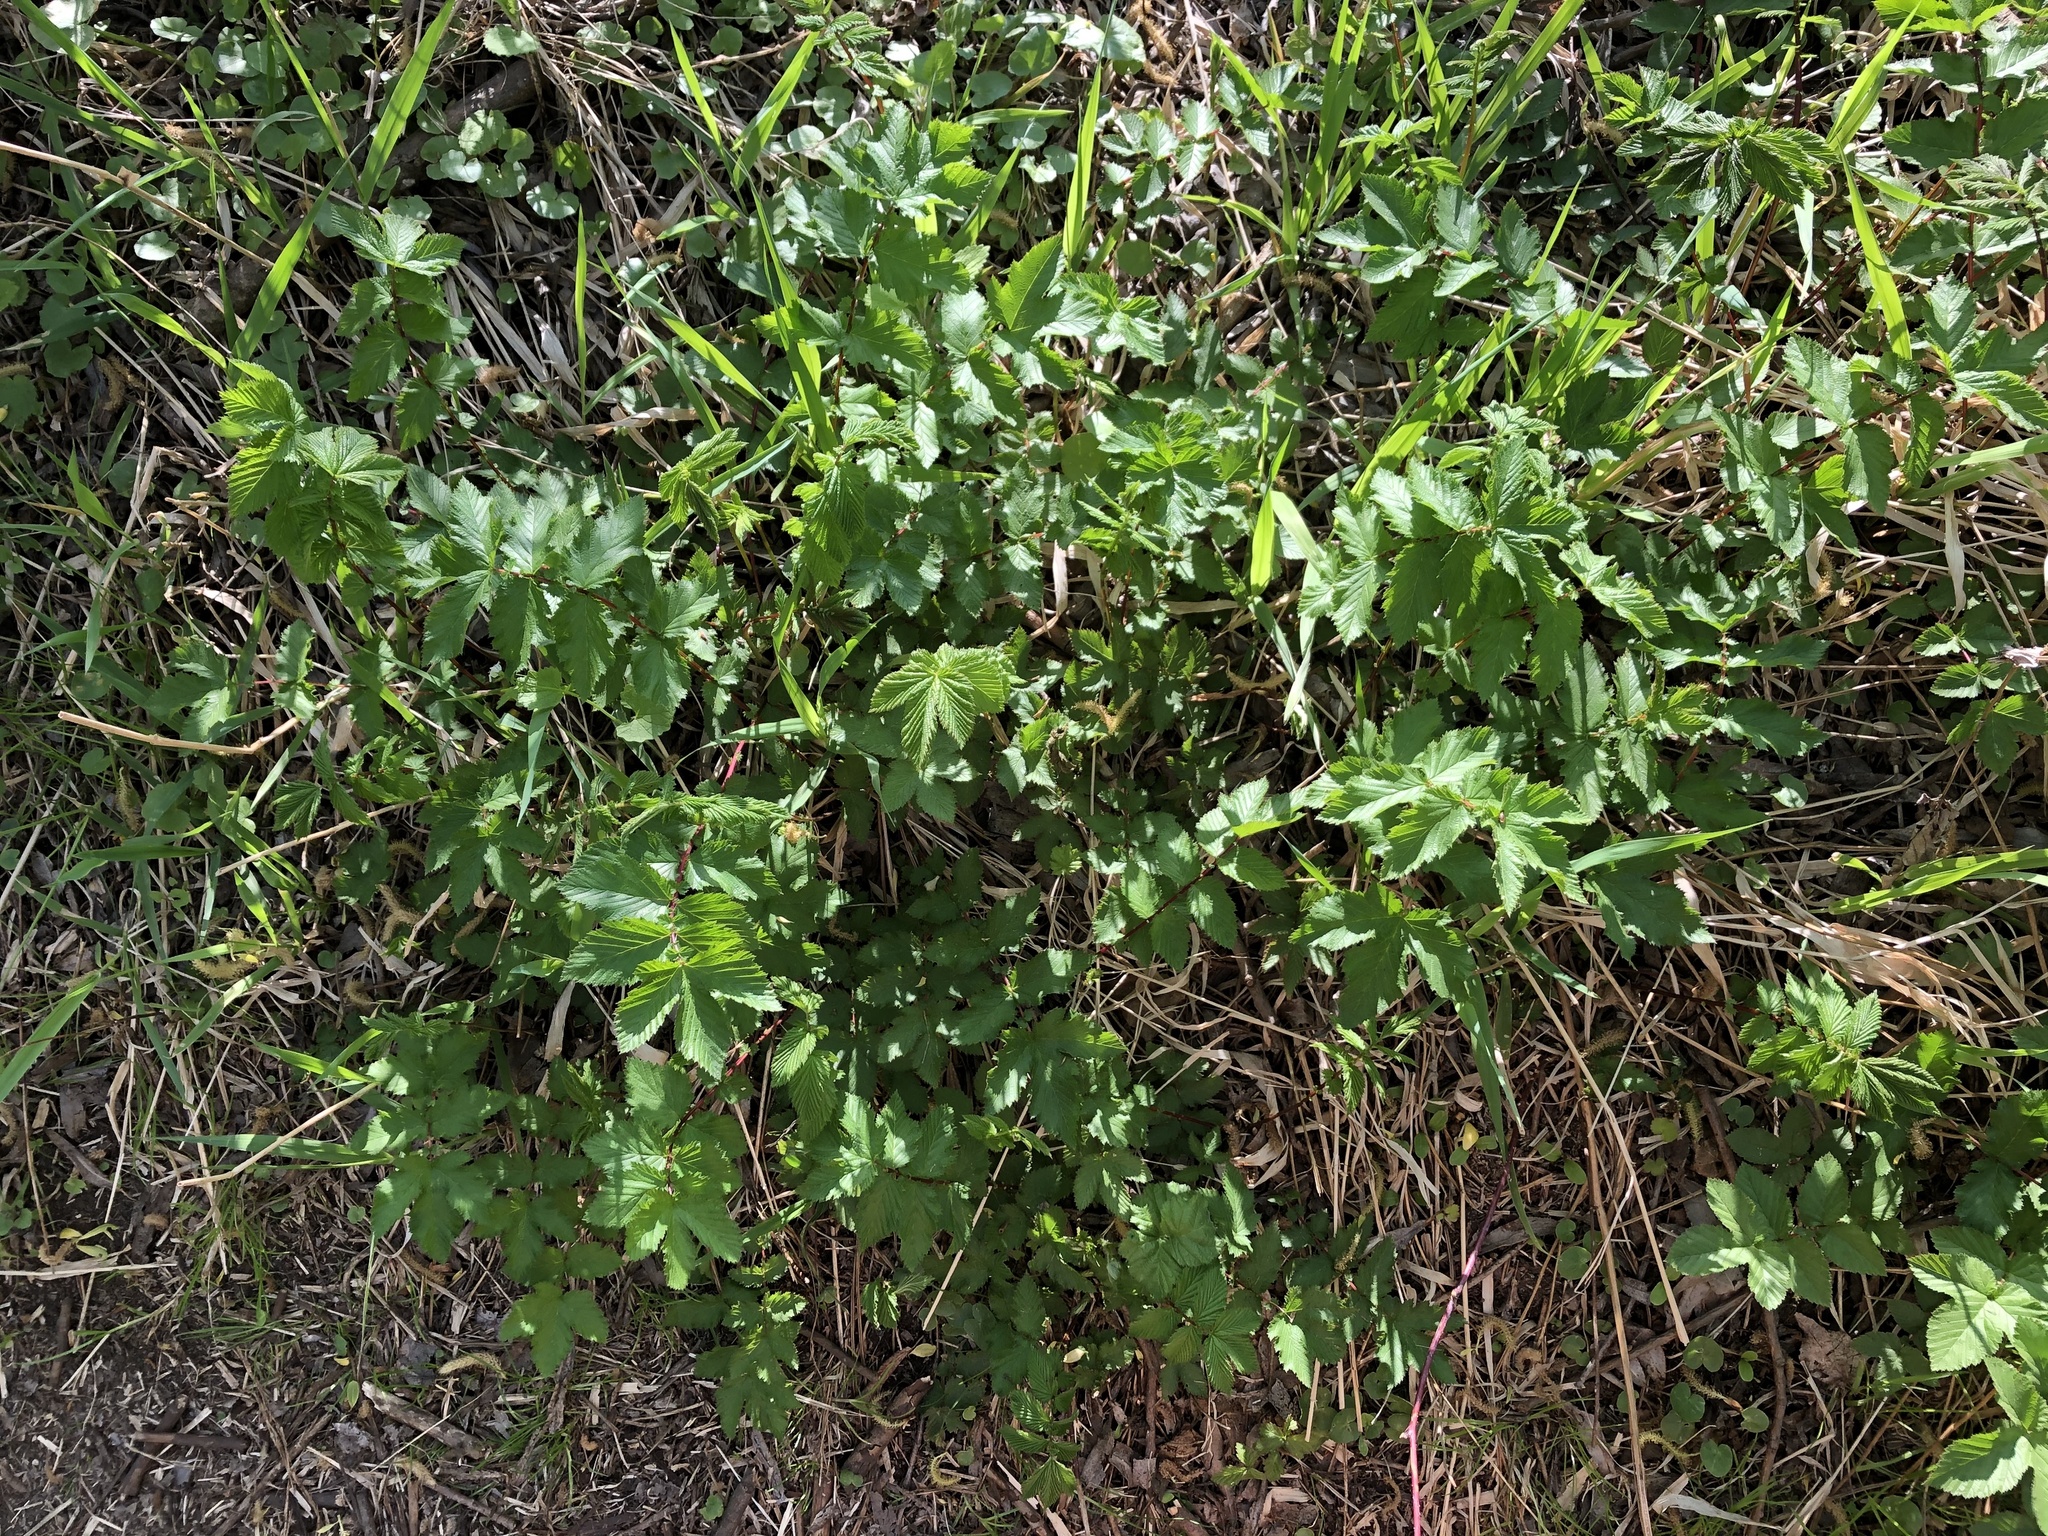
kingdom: Plantae
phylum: Tracheophyta
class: Magnoliopsida
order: Rosales
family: Rosaceae
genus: Filipendula
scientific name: Filipendula ulmaria
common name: Meadowsweet
